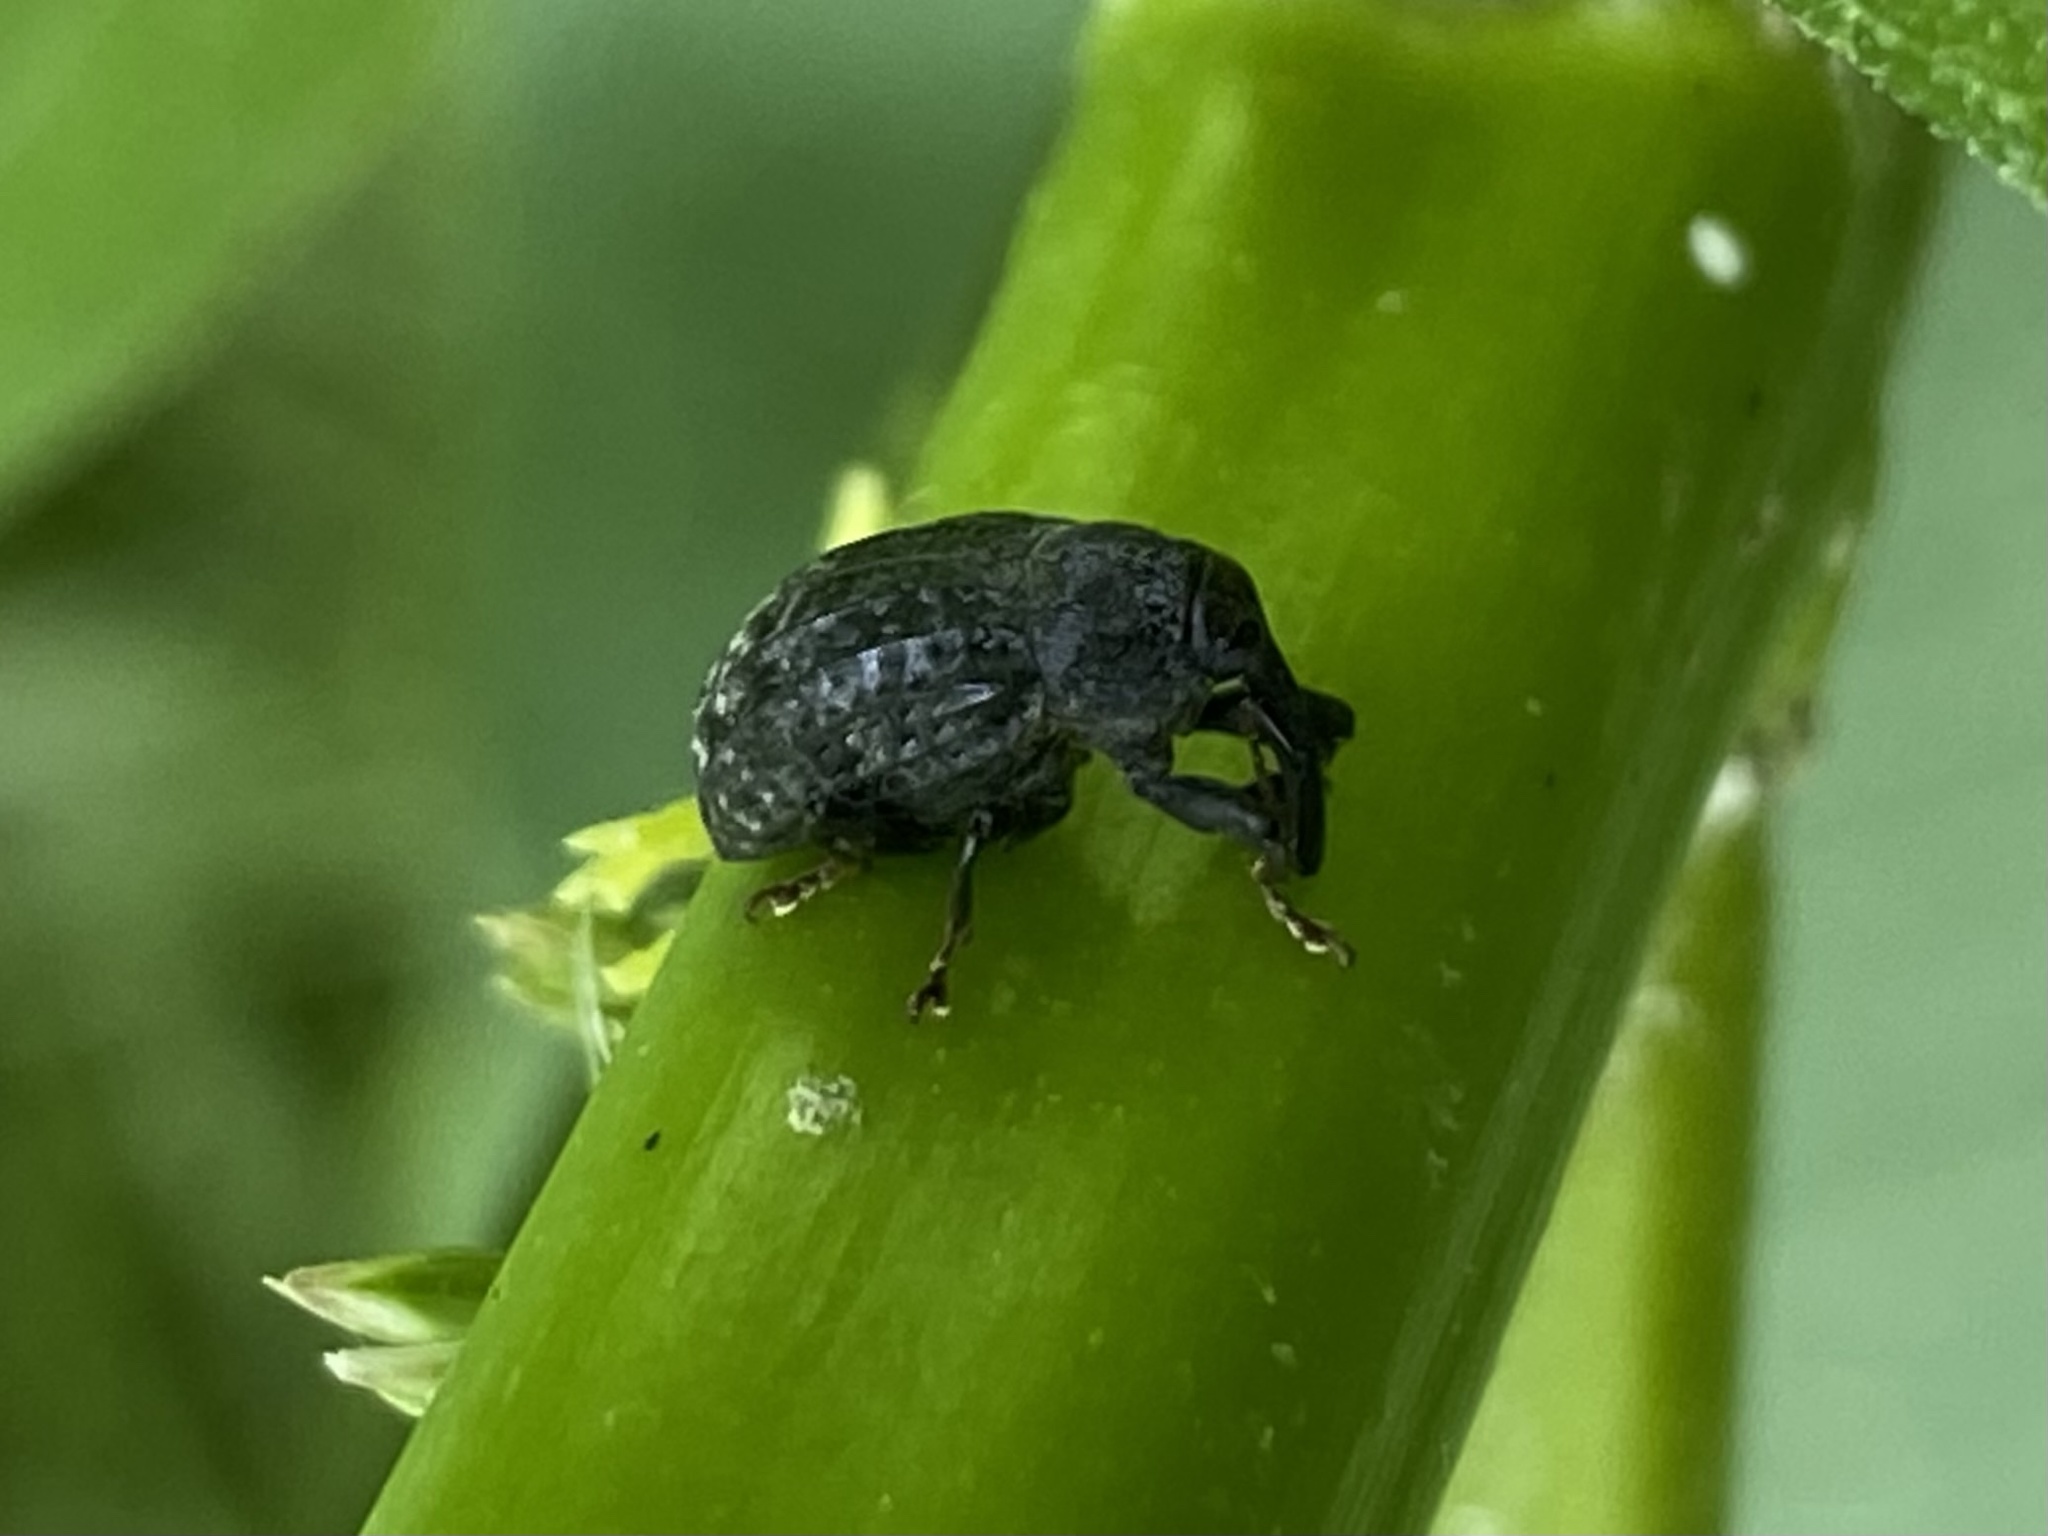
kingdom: Animalia
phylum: Arthropoda
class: Insecta
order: Coleoptera
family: Curculionidae
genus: Rhyssomatus
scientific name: Rhyssomatus lineaticollis
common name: Milkweed stem weevil
